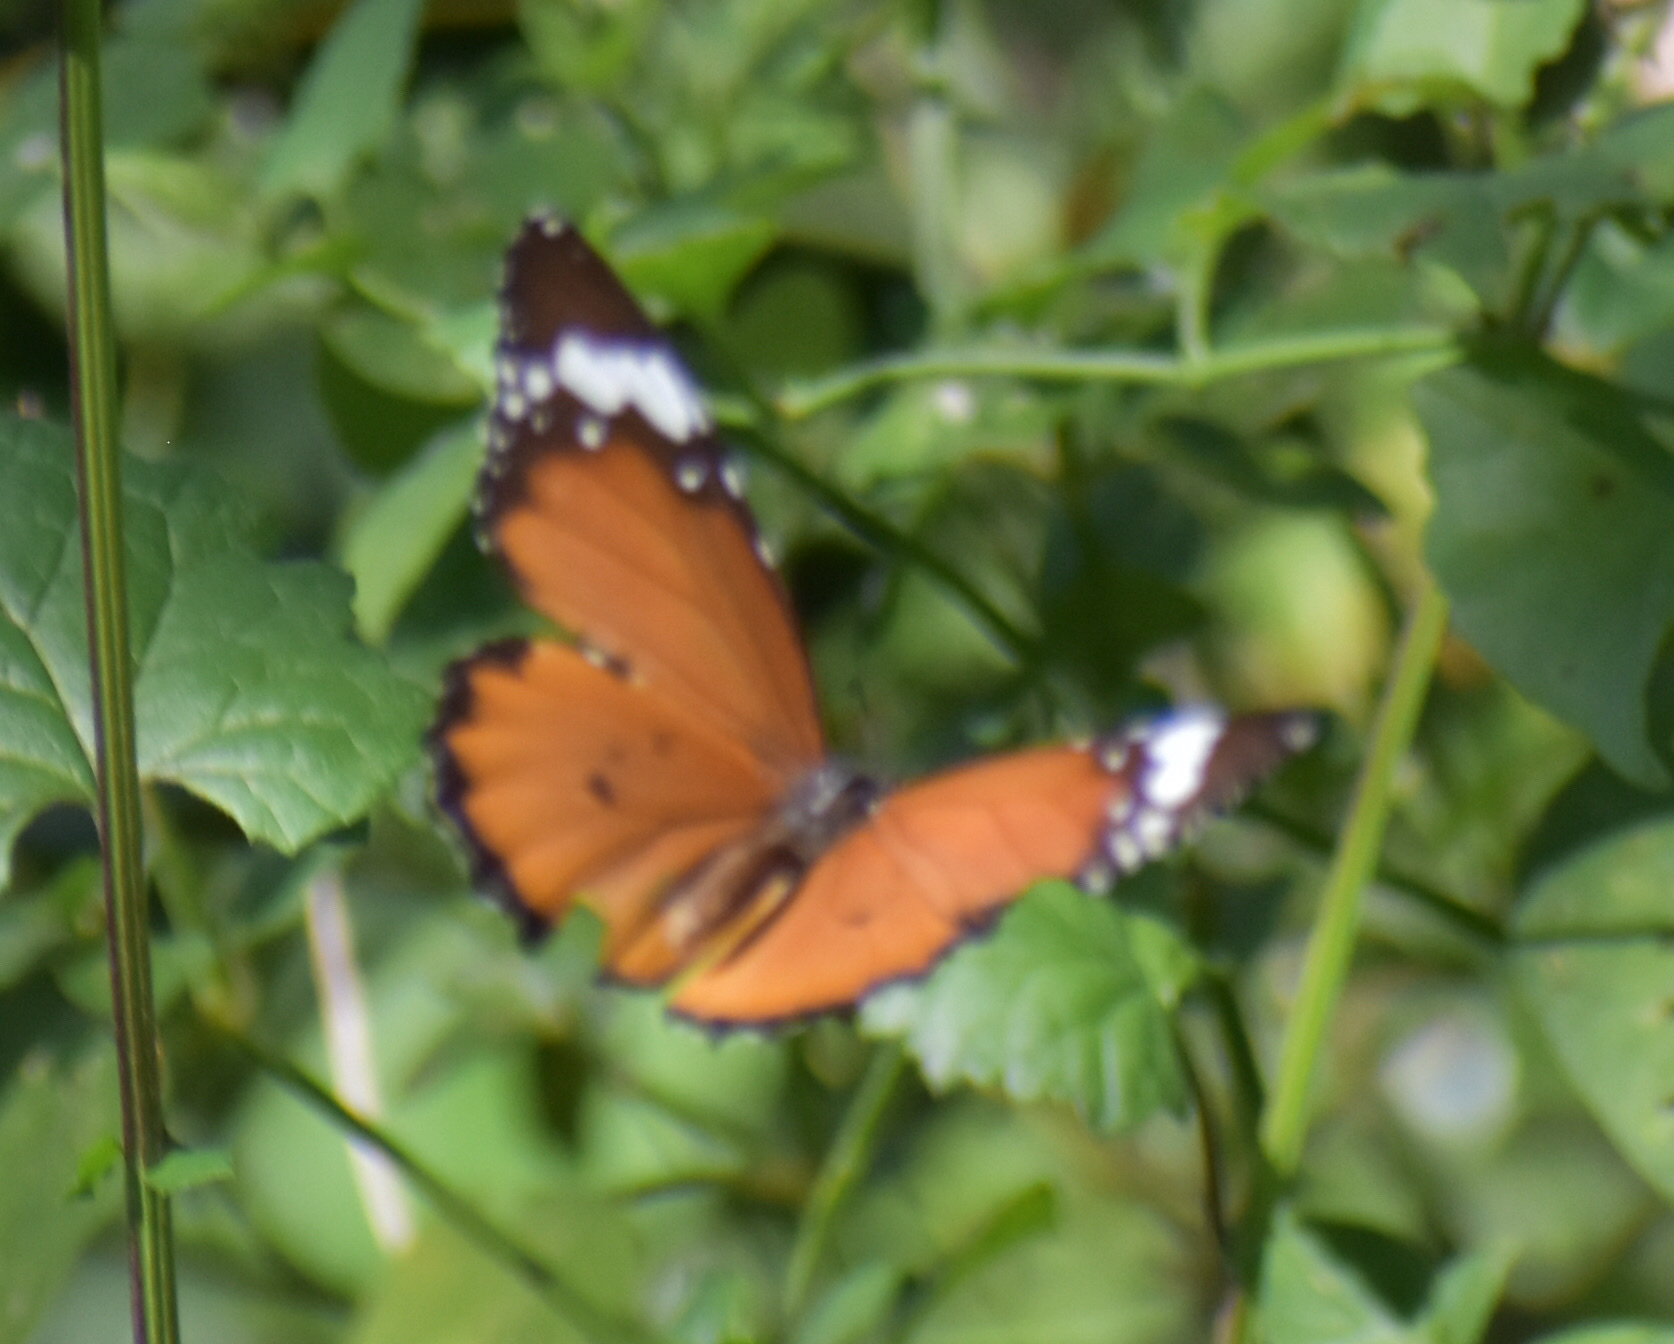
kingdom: Animalia
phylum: Arthropoda
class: Insecta
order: Lepidoptera
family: Nymphalidae
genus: Danaus
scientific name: Danaus chrysippus
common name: Plain tiger
